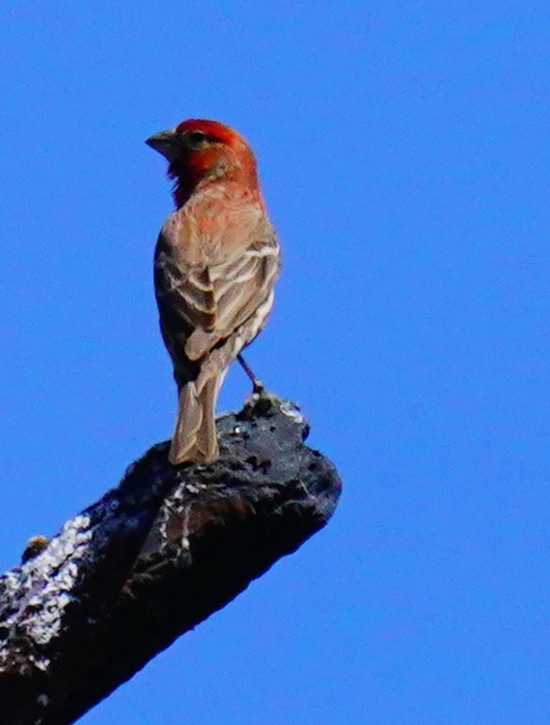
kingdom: Animalia
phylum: Chordata
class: Aves
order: Passeriformes
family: Fringillidae
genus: Haemorhous
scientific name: Haemorhous mexicanus
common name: House finch
